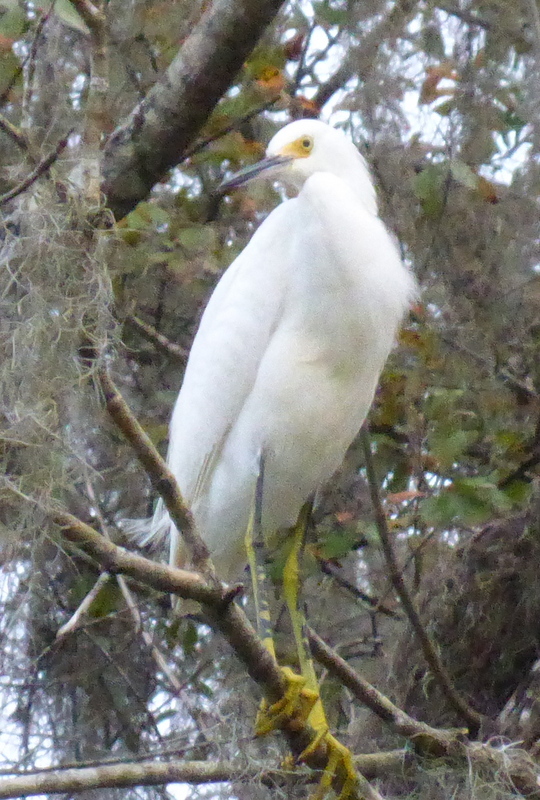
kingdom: Animalia
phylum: Chordata
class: Aves
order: Pelecaniformes
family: Ardeidae
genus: Egretta
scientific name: Egretta thula
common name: Snowy egret
